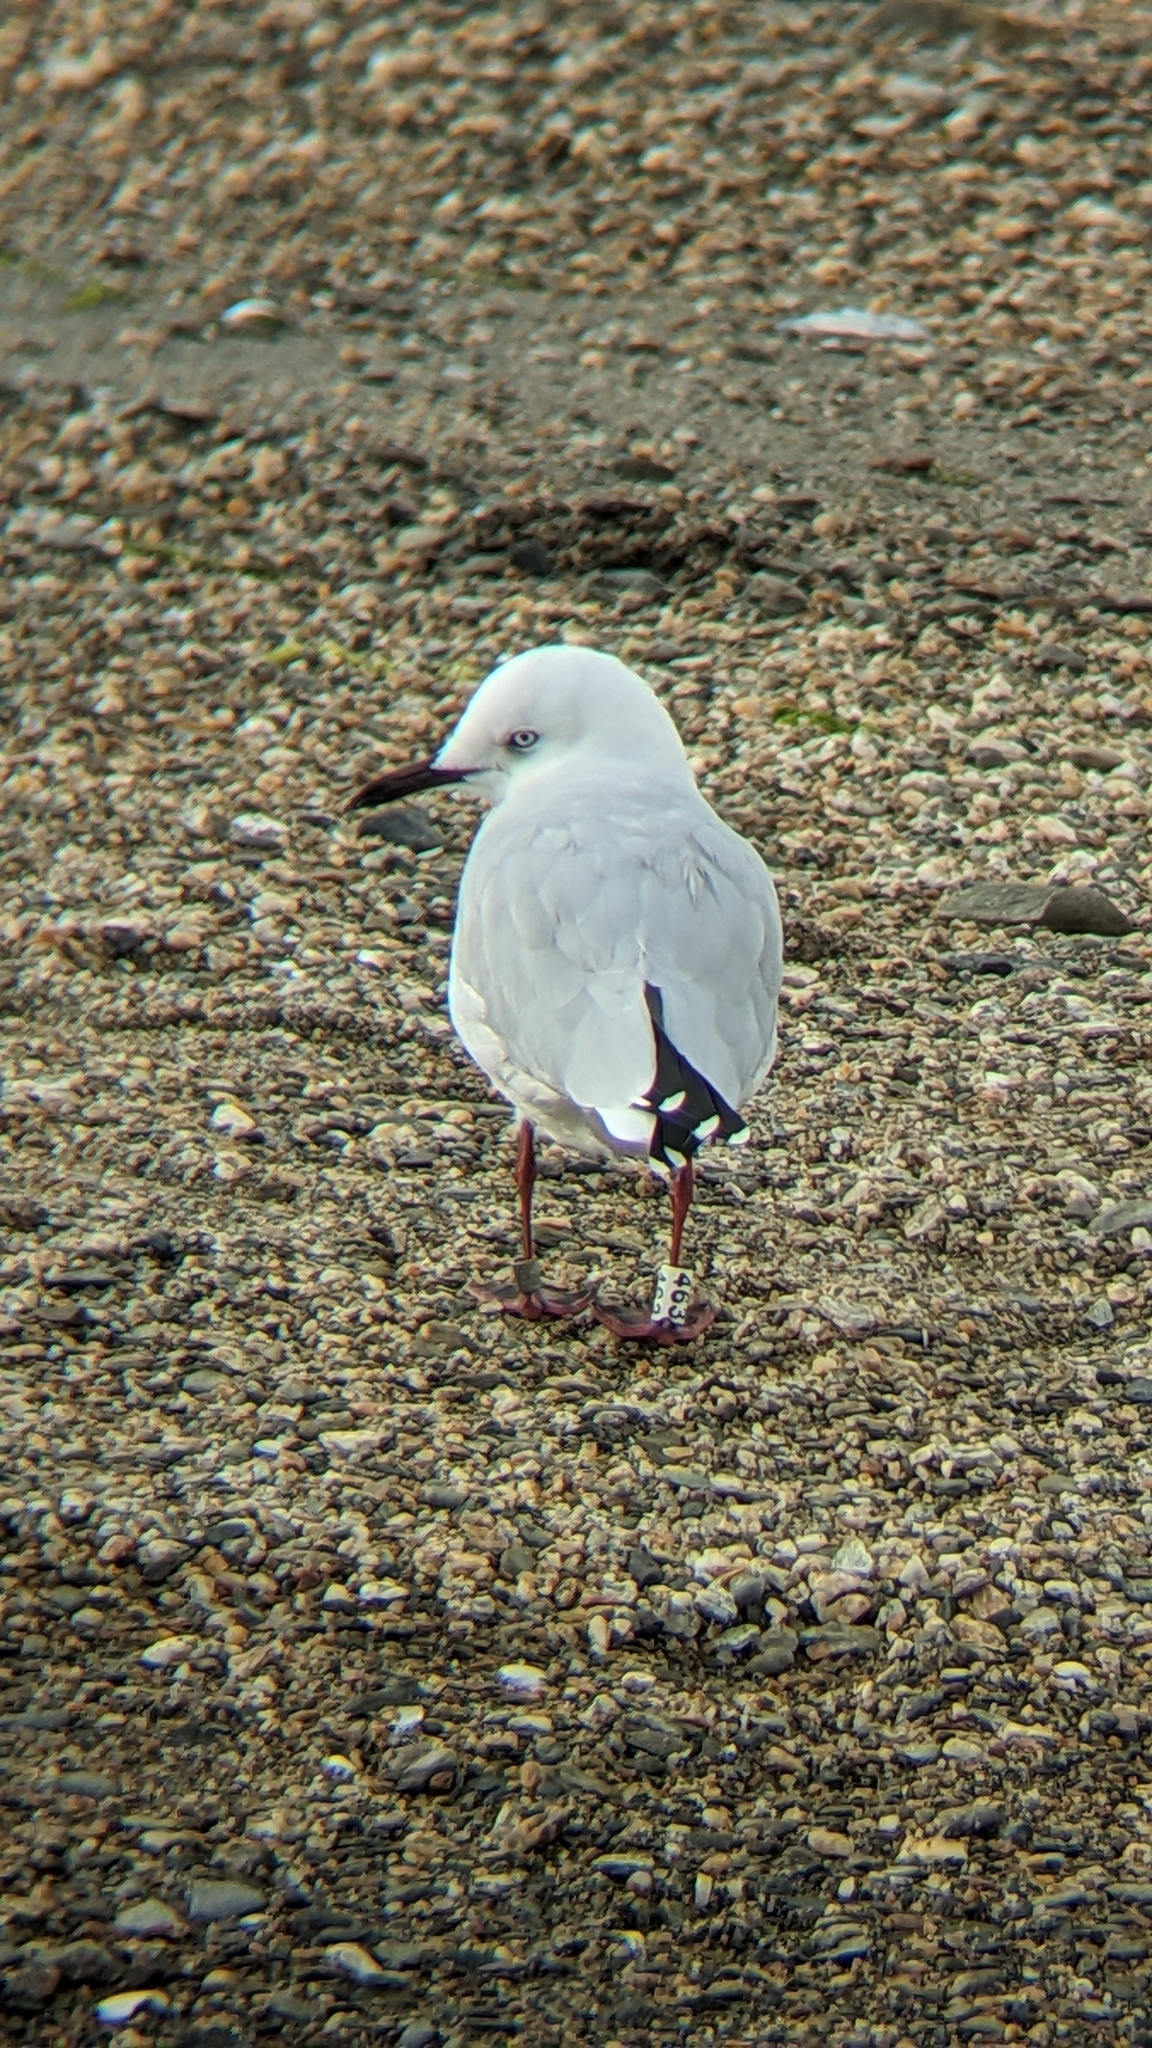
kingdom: Animalia
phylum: Chordata
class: Aves
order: Charadriiformes
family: Laridae
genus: Chroicocephalus
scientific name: Chroicocephalus bulleri
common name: Black-billed gull
